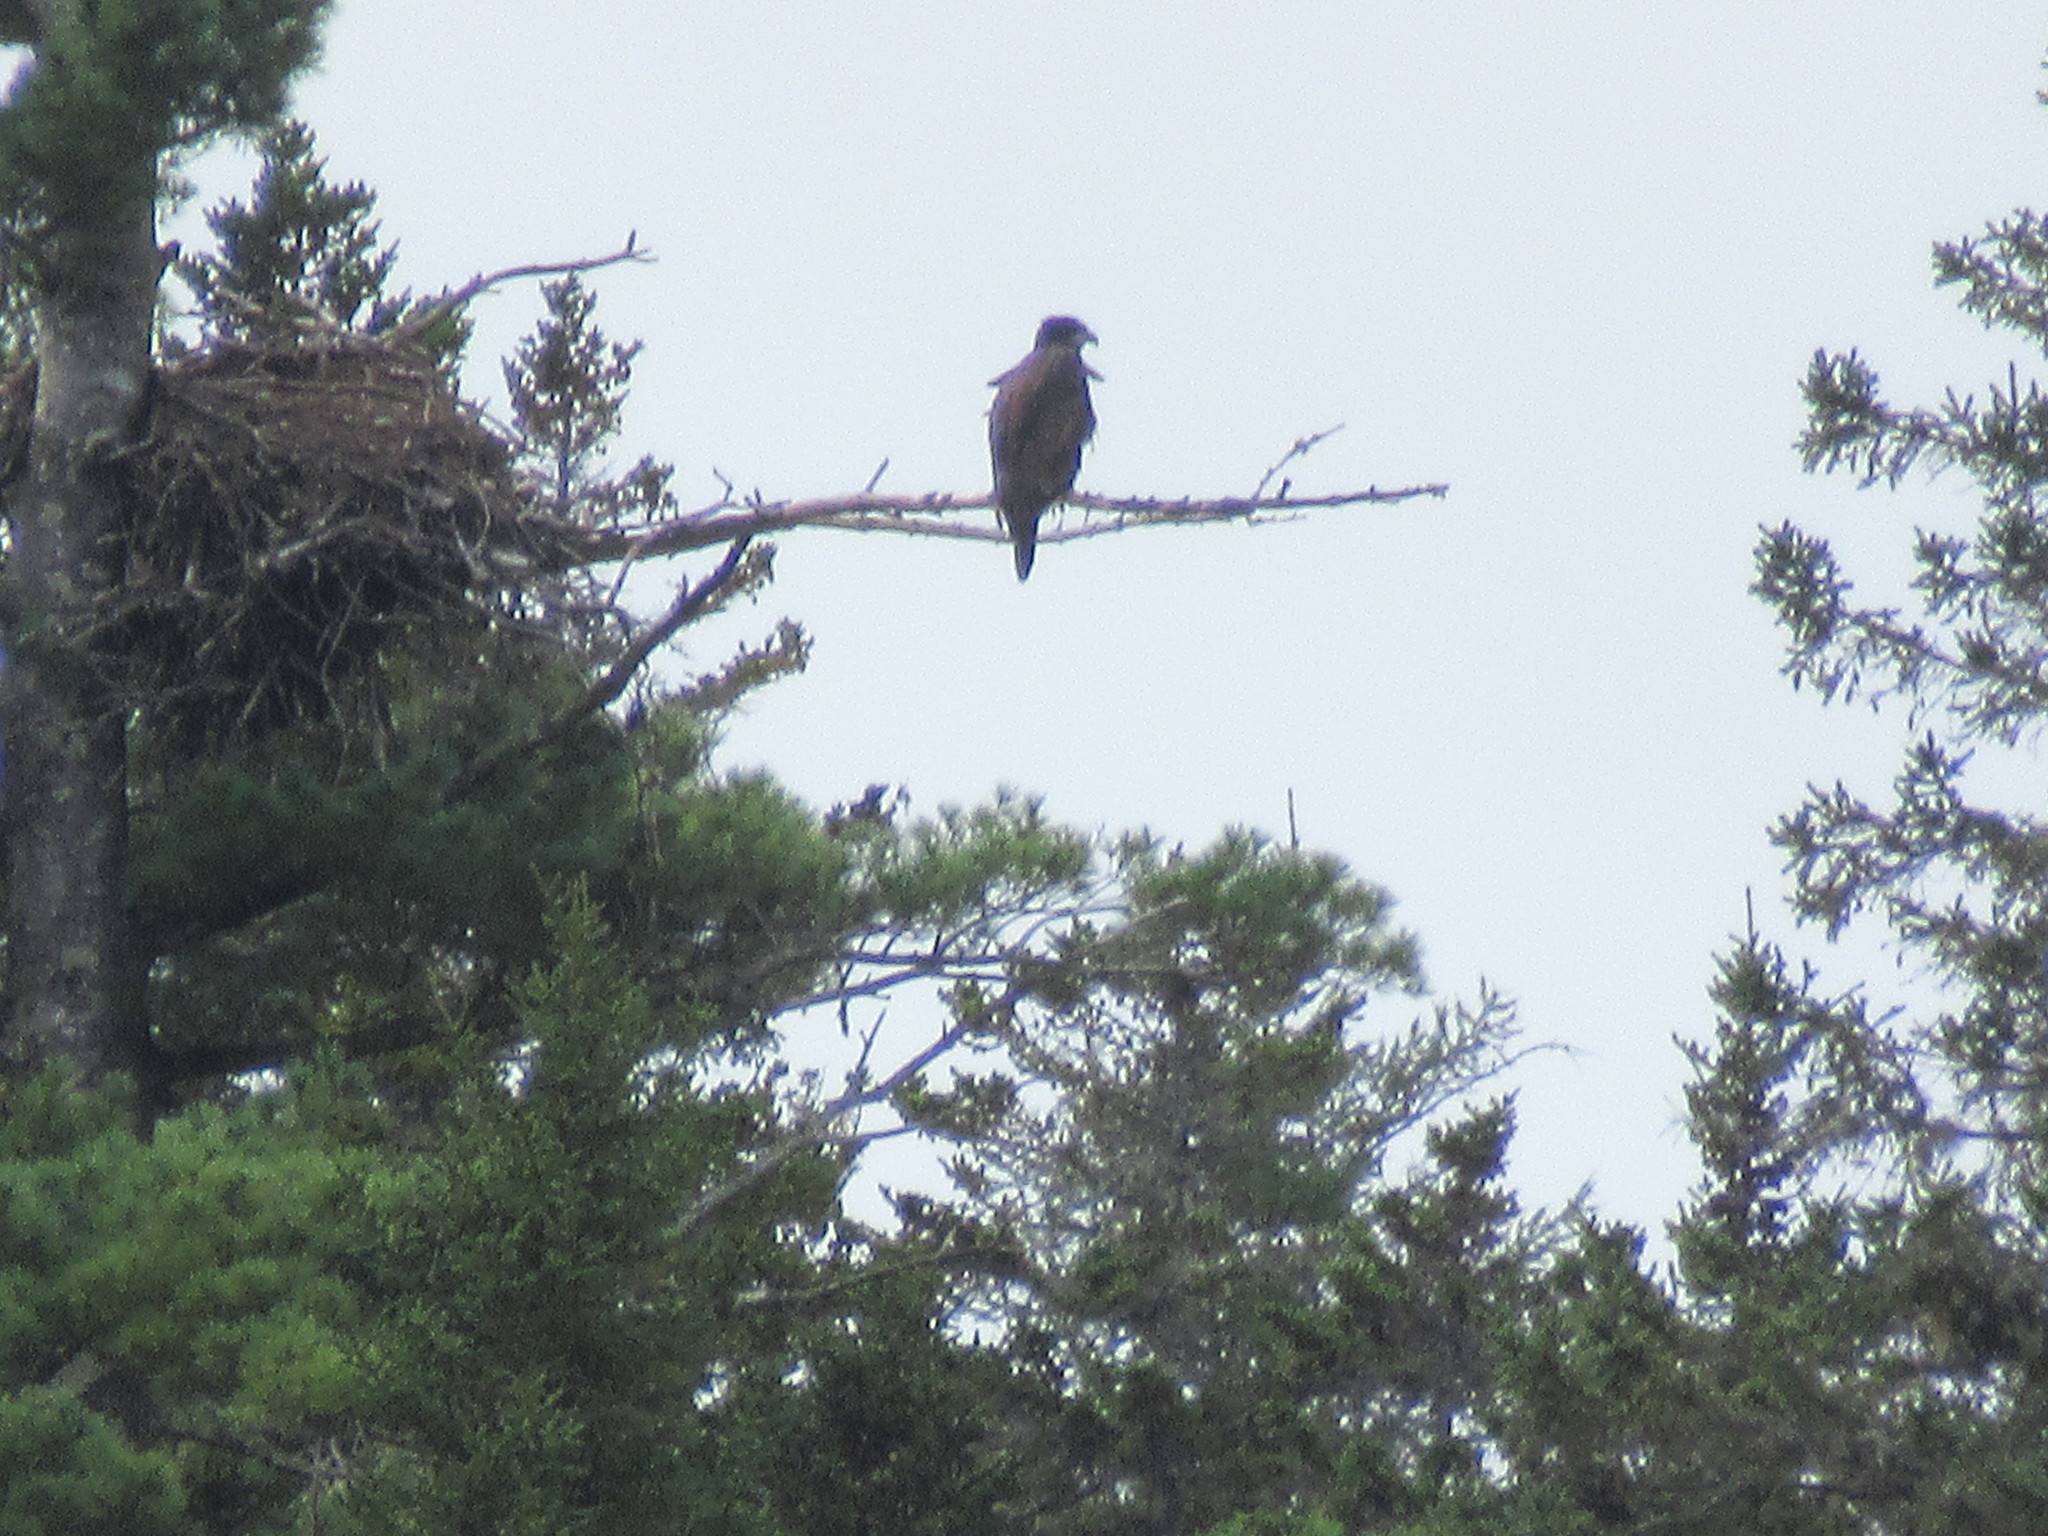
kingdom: Animalia
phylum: Chordata
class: Aves
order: Accipitriformes
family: Accipitridae
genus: Haliaeetus
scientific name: Haliaeetus leucocephalus
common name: Bald eagle
